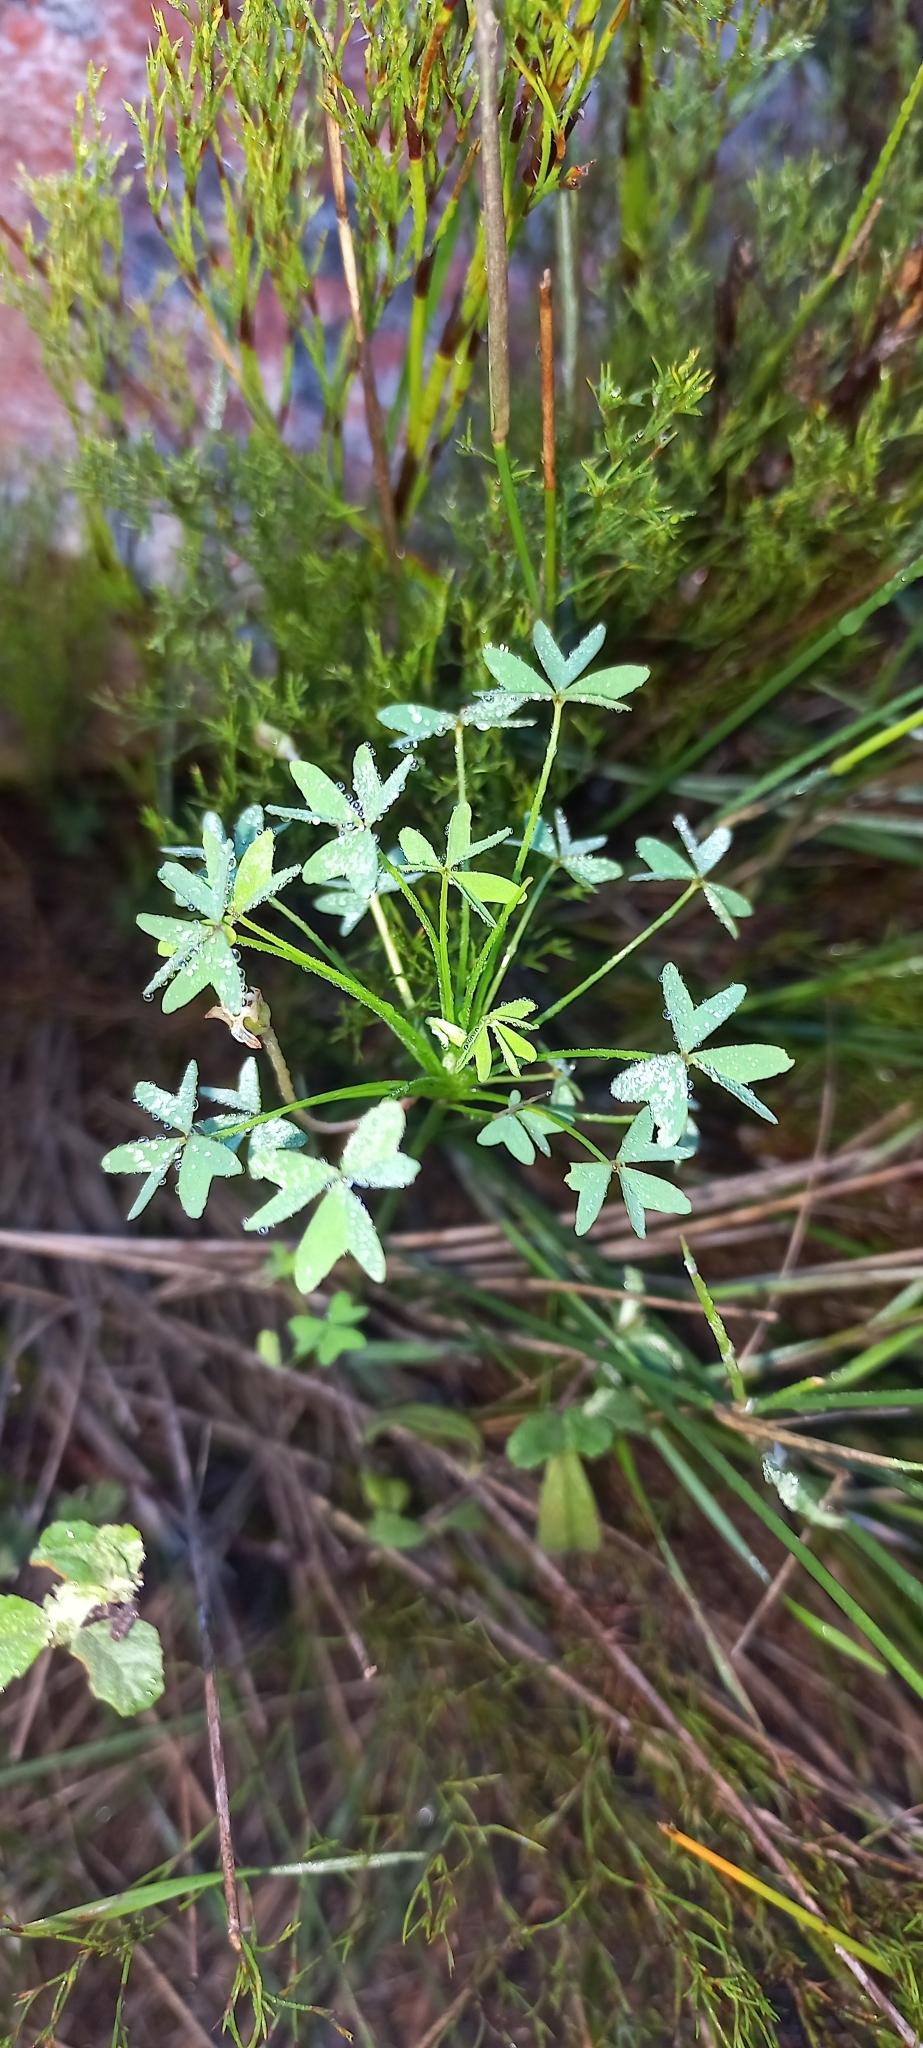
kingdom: Plantae
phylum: Tracheophyta
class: Magnoliopsida
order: Oxalidales
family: Oxalidaceae
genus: Oxalis
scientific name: Oxalis bifida
